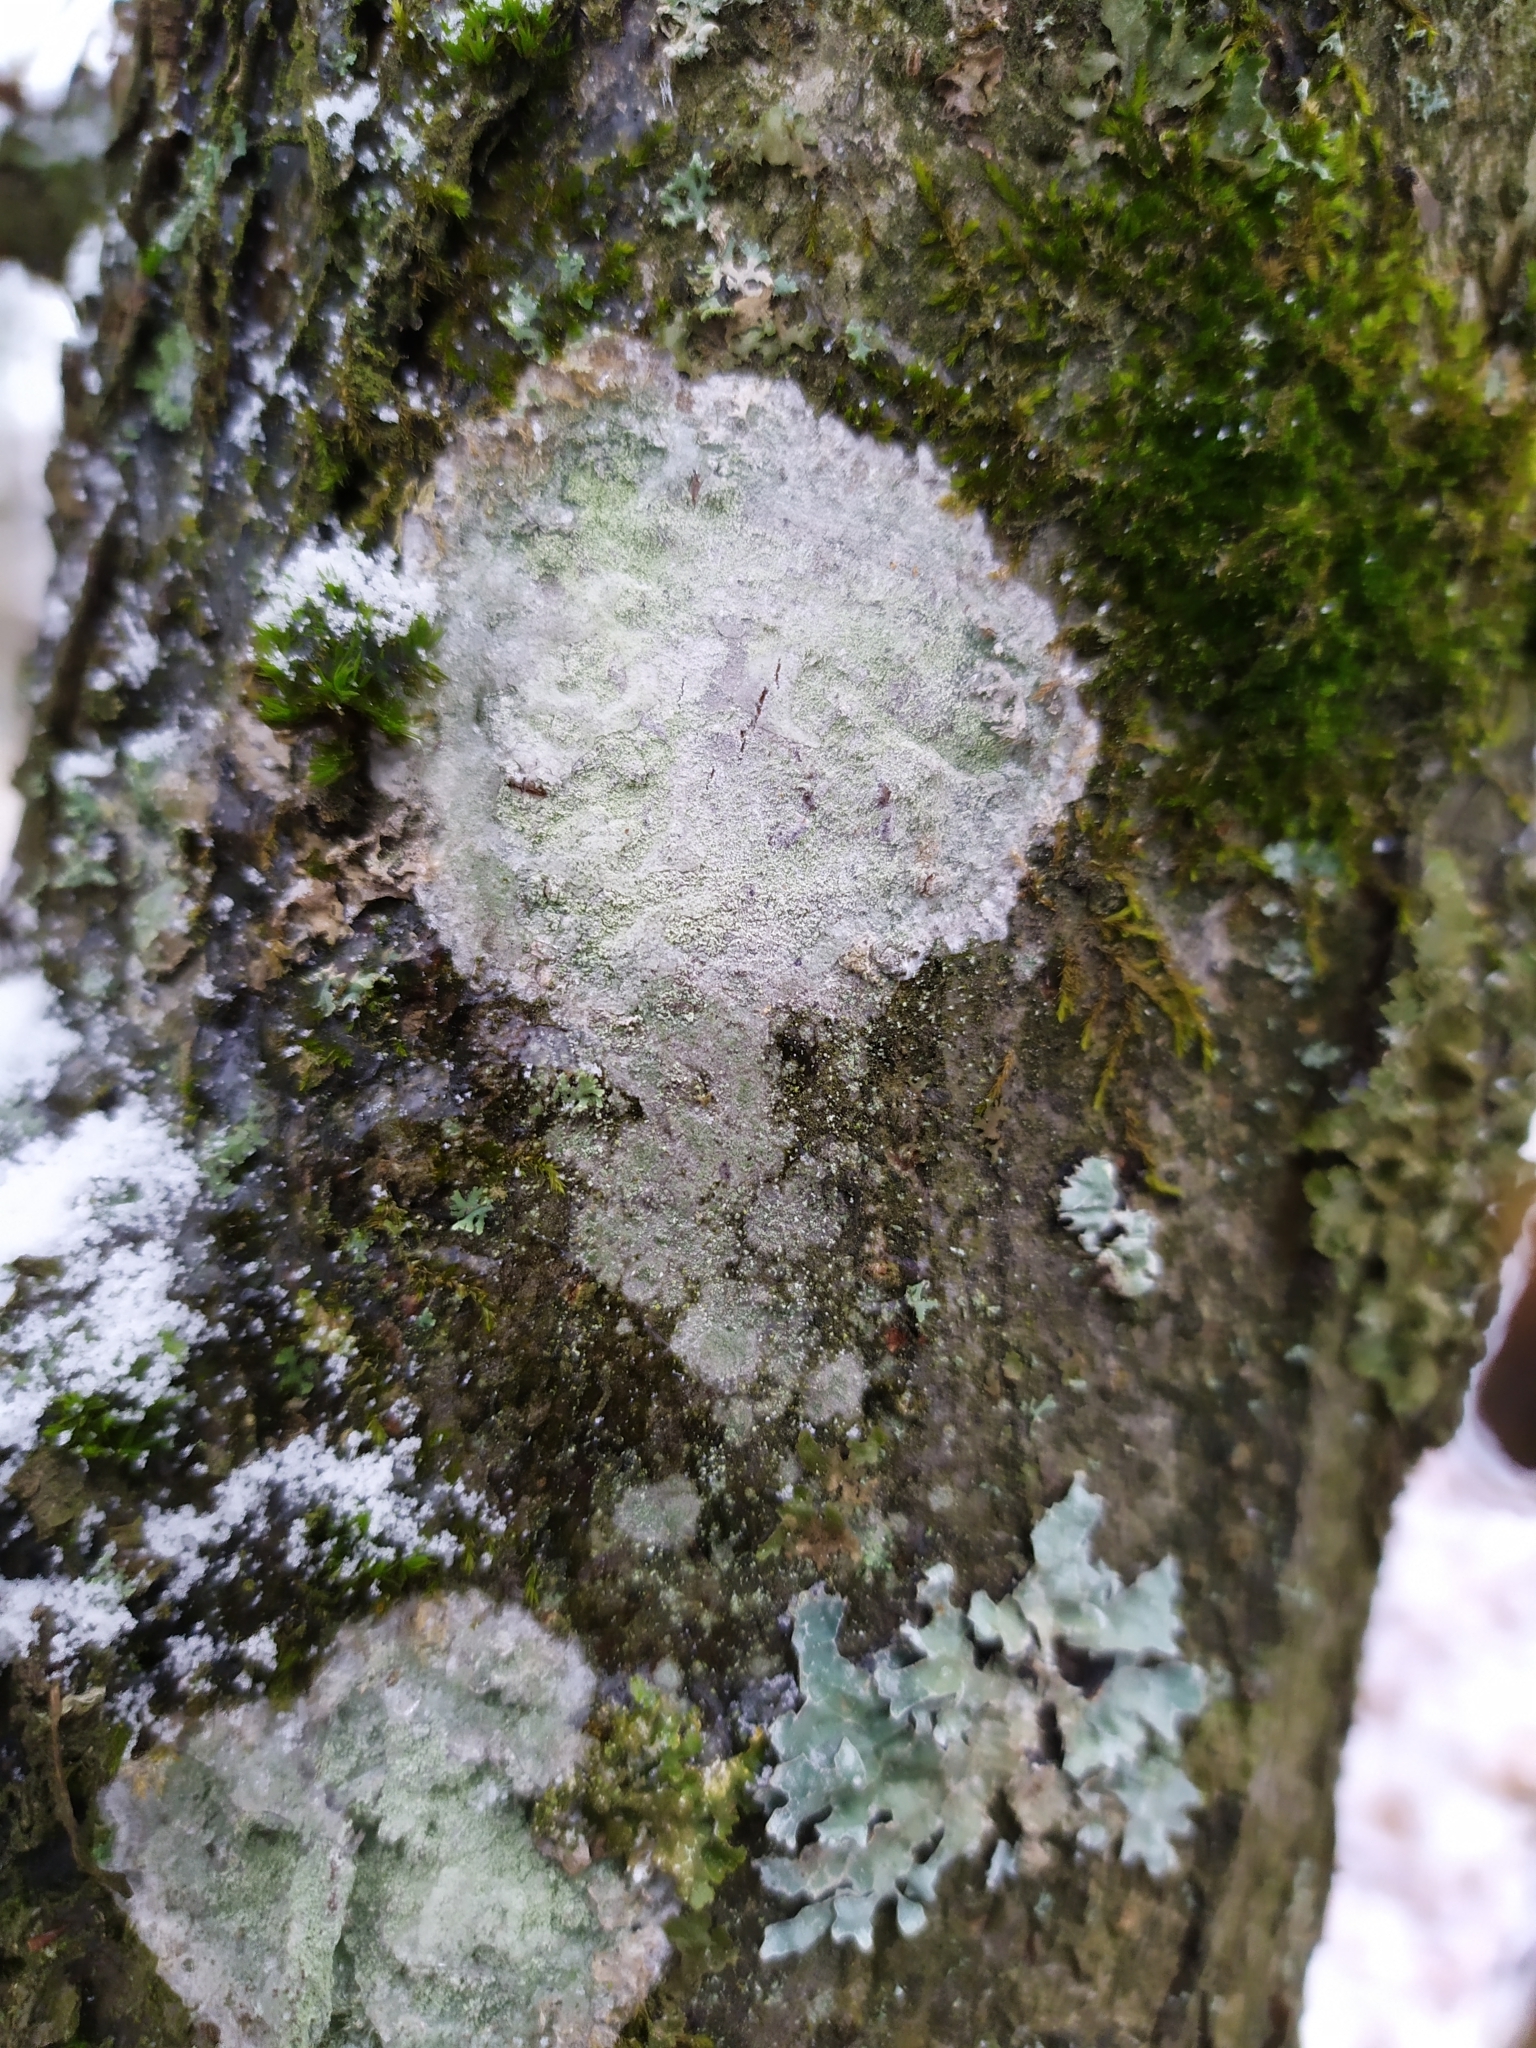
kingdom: Fungi
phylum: Ascomycota
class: Lecanoromycetes
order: Ostropales
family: Phlyctidaceae
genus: Phlyctis
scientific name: Phlyctis argena
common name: Whitewash lichen
